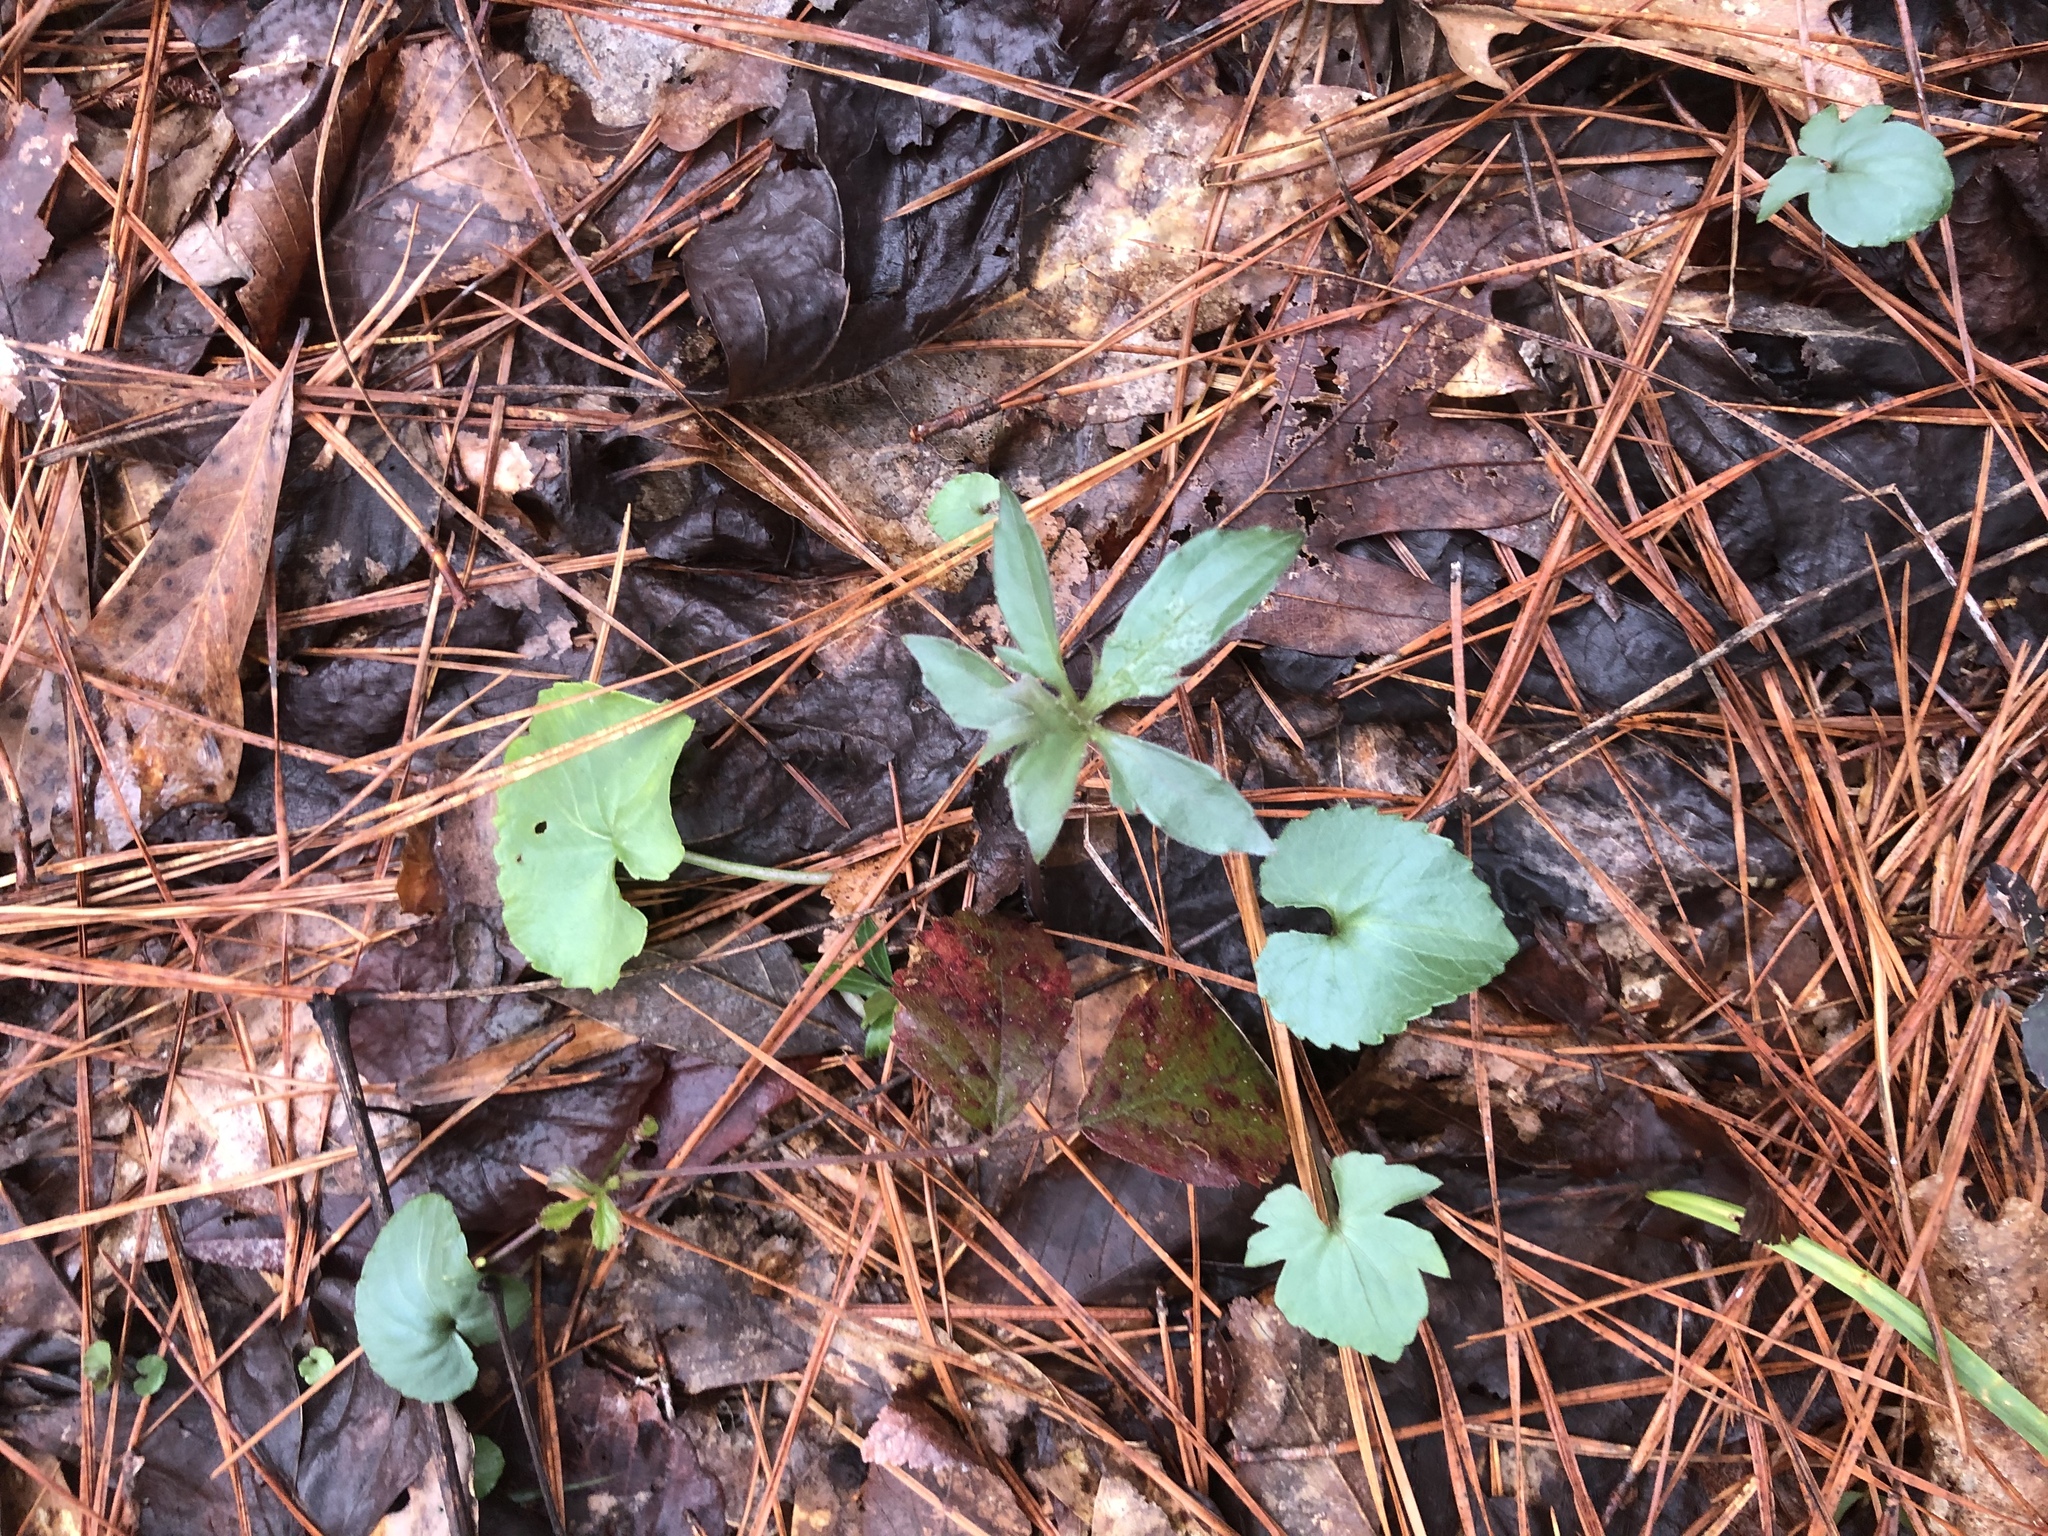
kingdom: Plantae
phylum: Tracheophyta
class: Magnoliopsida
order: Malpighiales
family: Violaceae
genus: Viola
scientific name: Viola palmata
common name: Early blue violet
